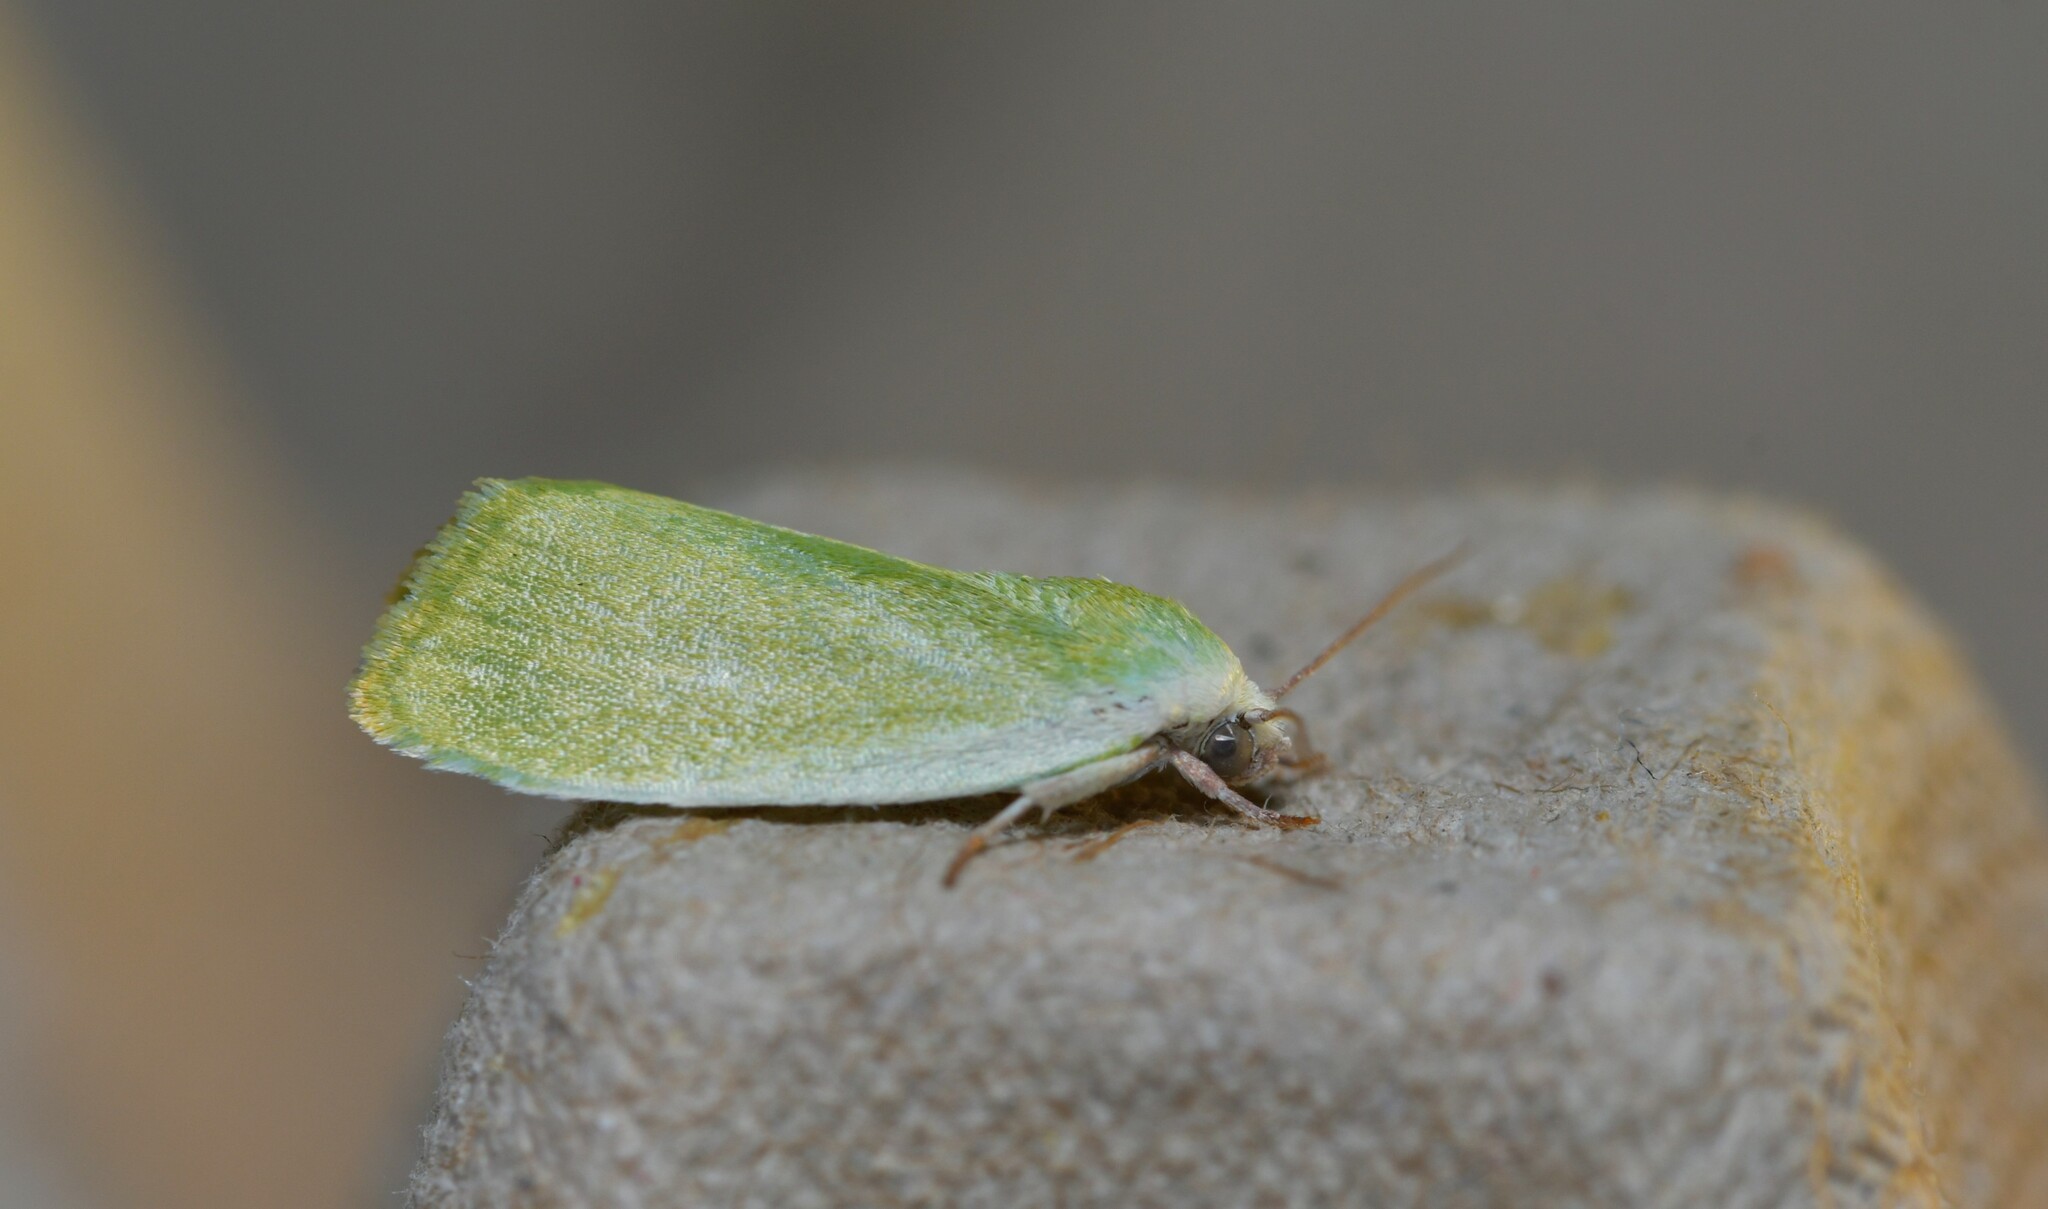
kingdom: Animalia
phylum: Arthropoda
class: Insecta
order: Lepidoptera
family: Nolidae
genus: Earias
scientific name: Earias clorana
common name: Cream-bordered green pea
